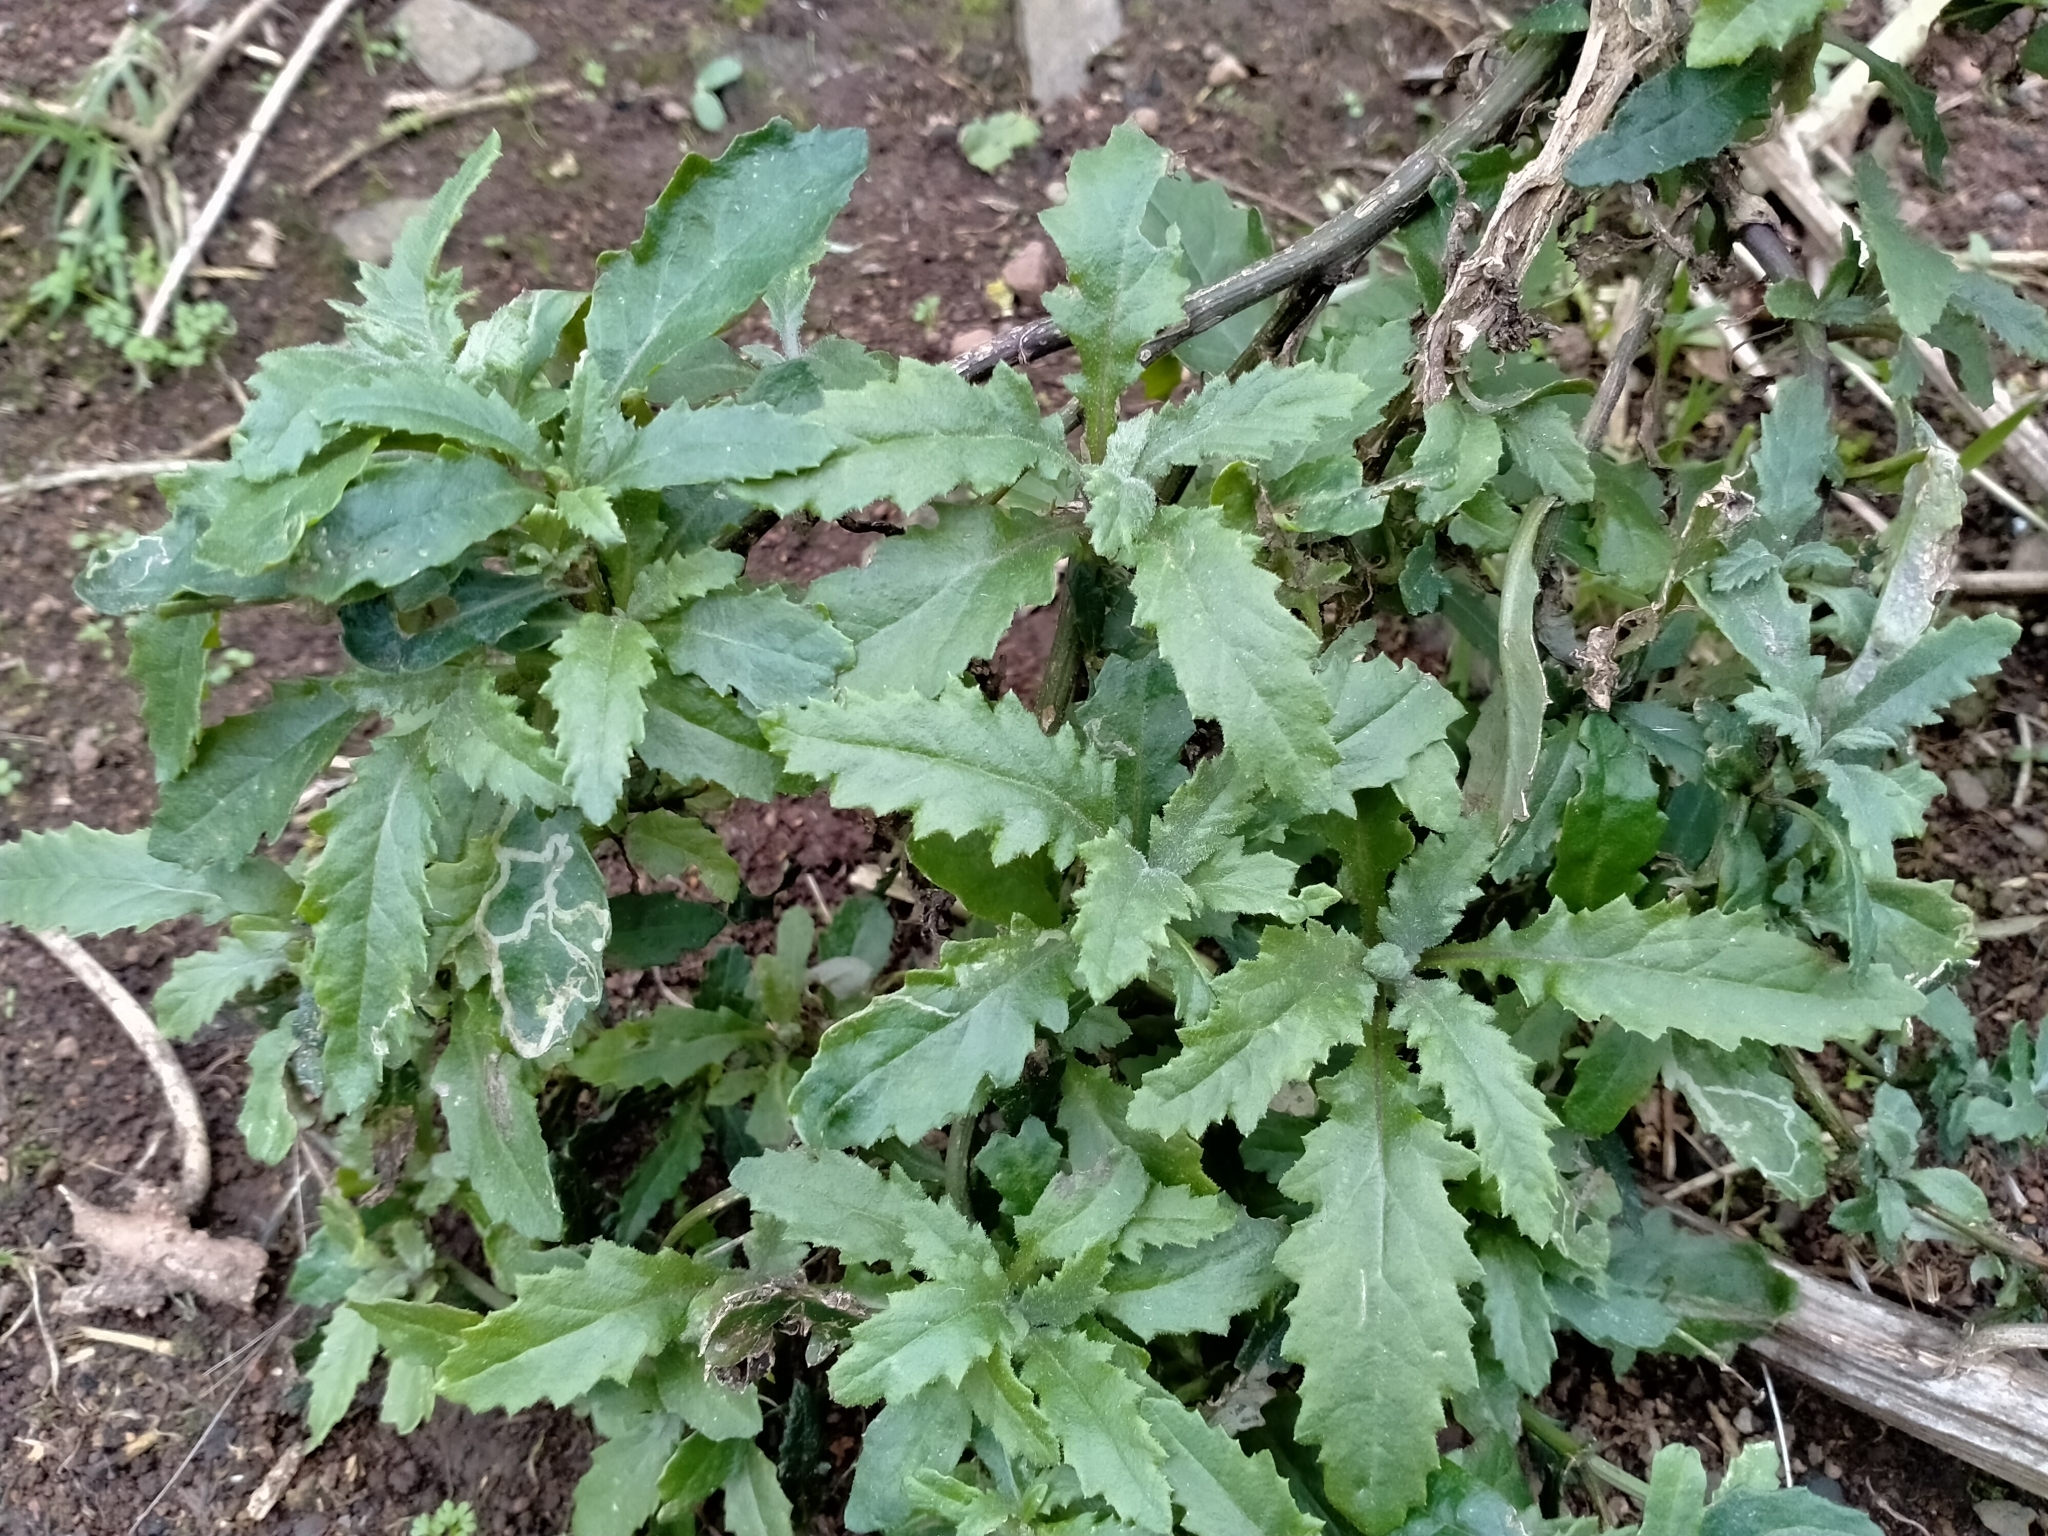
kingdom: Plantae
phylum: Tracheophyta
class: Magnoliopsida
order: Asterales
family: Asteraceae
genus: Senecio
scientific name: Senecio biserratus
